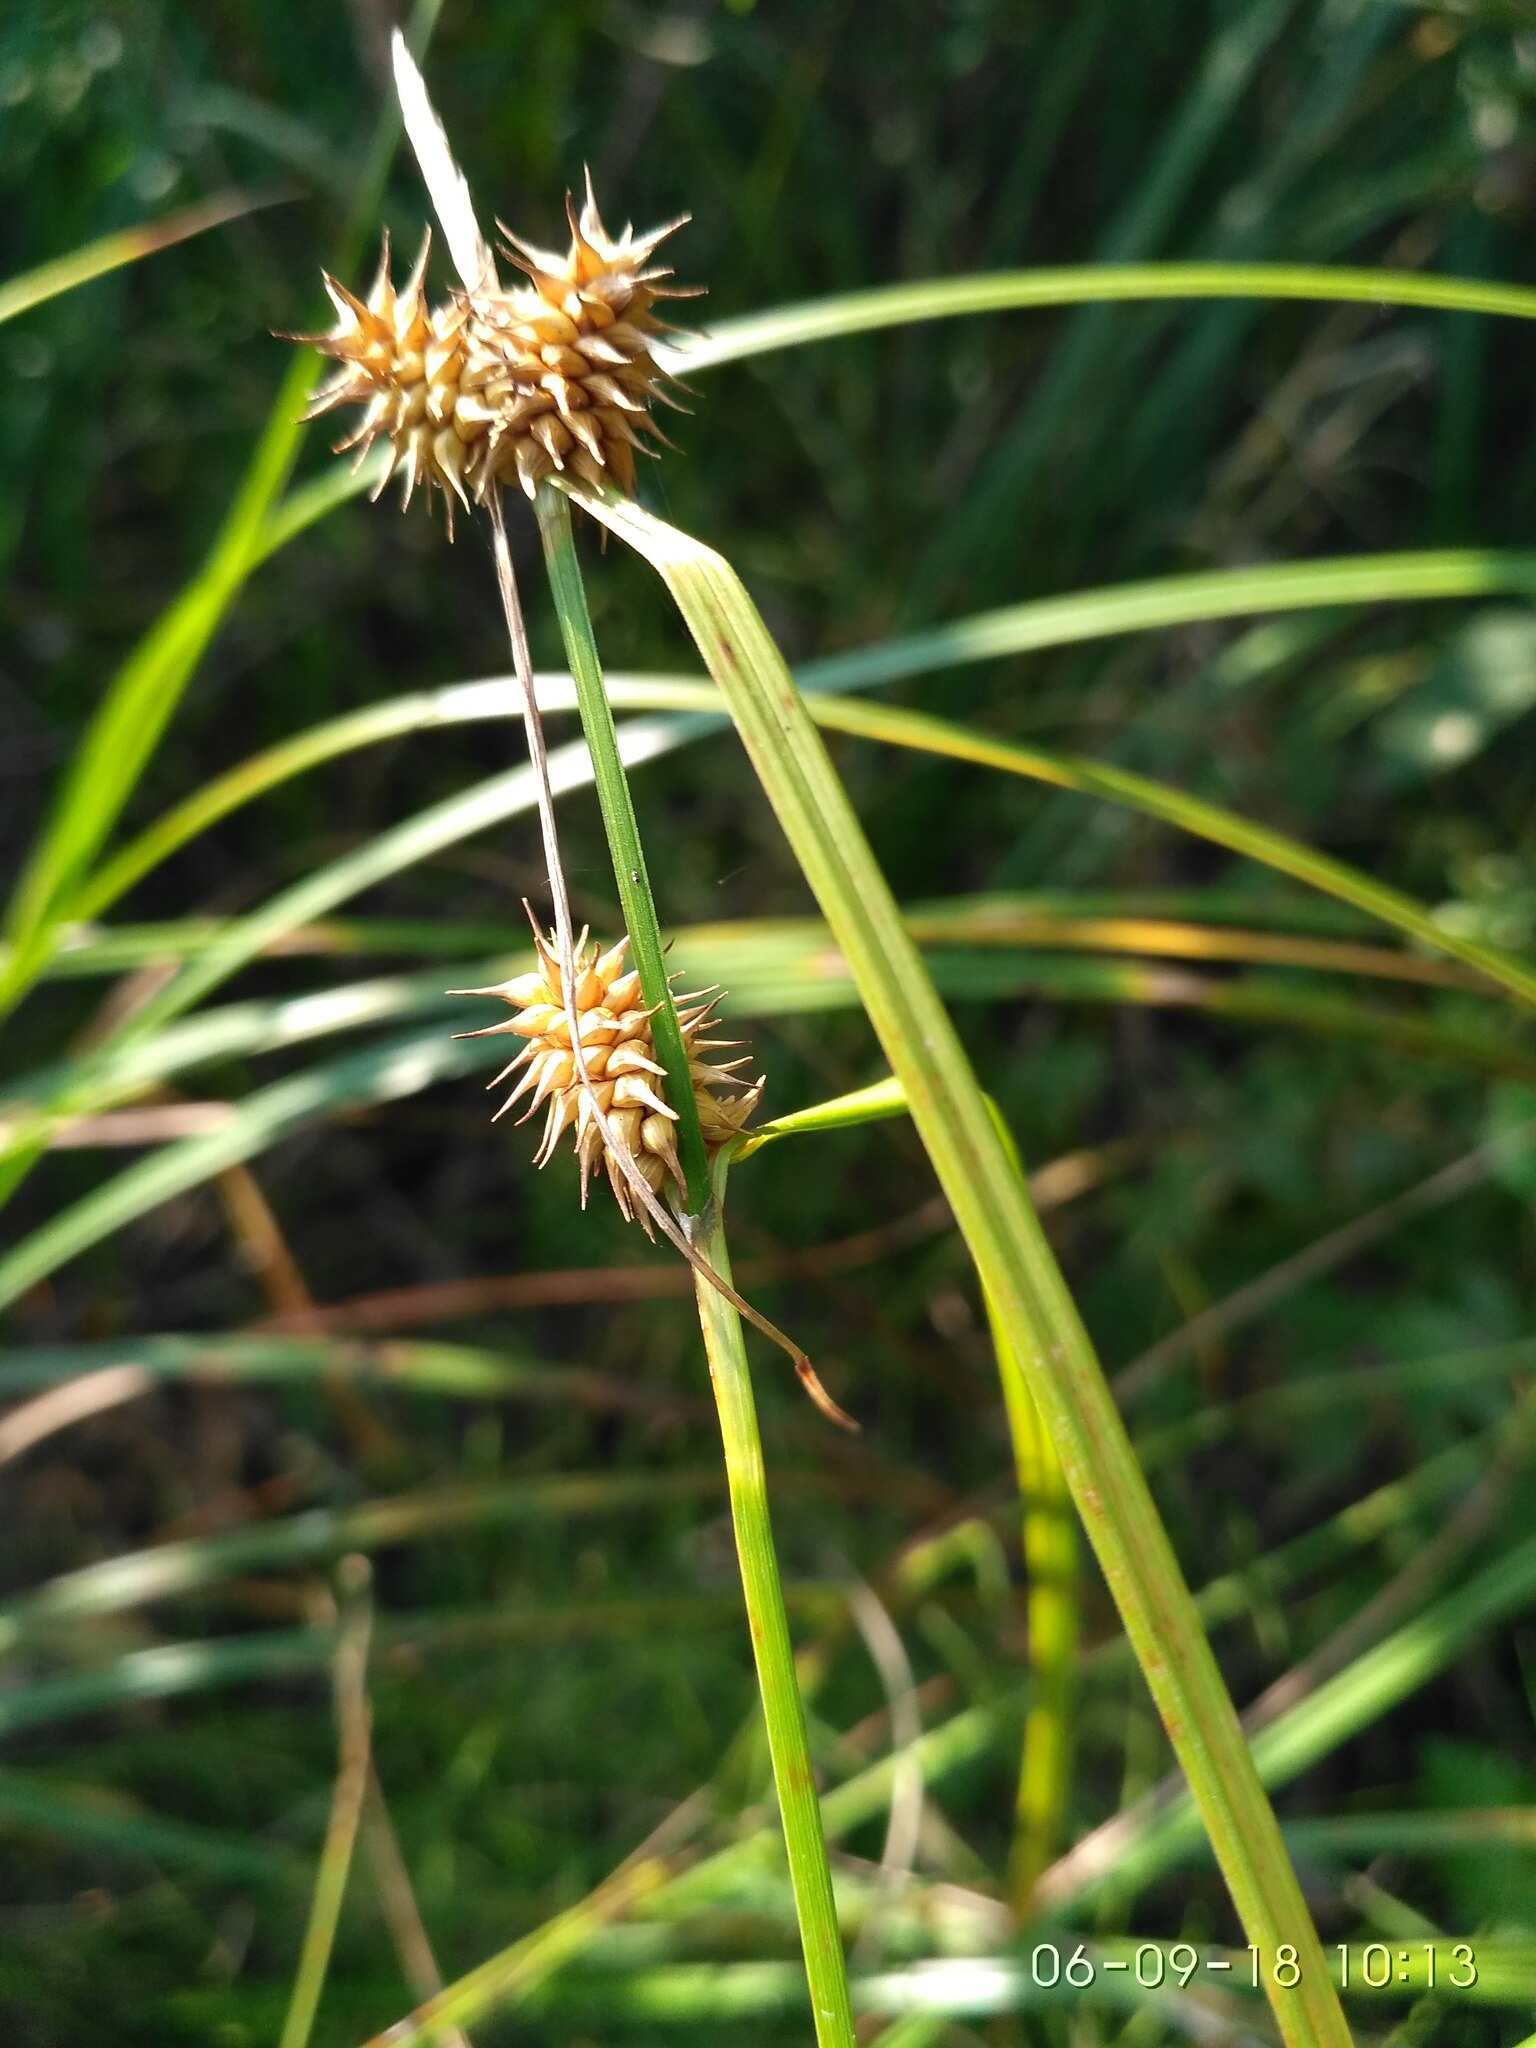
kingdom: Plantae
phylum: Tracheophyta
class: Liliopsida
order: Poales
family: Cyperaceae
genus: Carex
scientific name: Carex flava
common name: Large yellow-sedge
